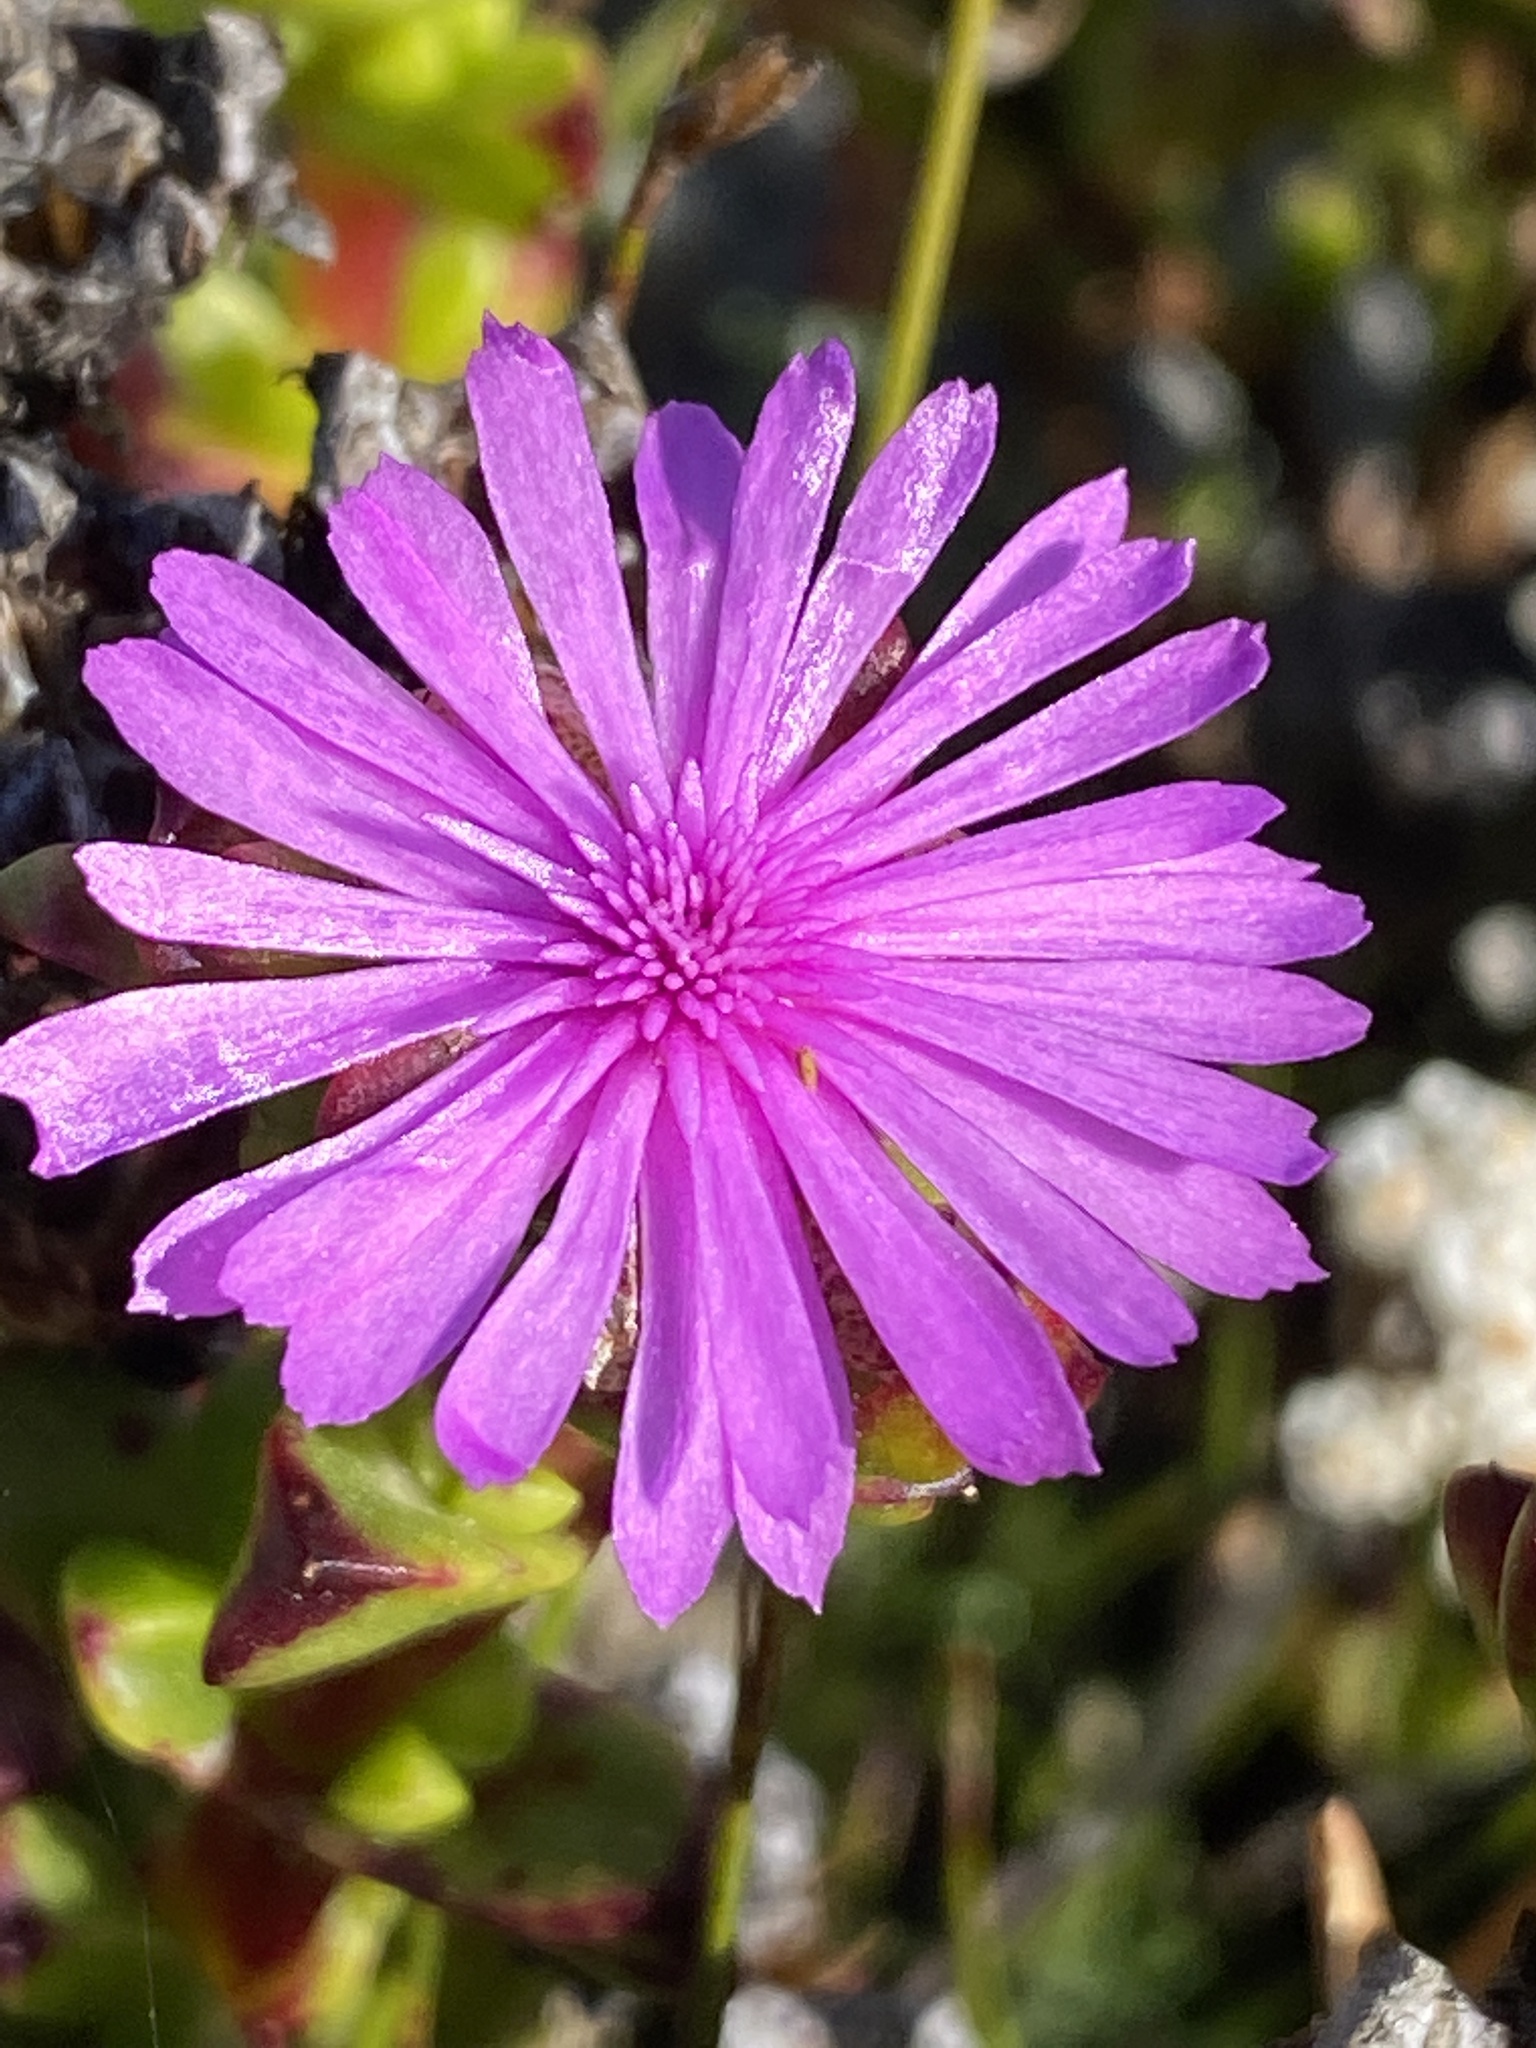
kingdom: Plantae
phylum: Tracheophyta
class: Magnoliopsida
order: Caryophyllales
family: Aizoaceae
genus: Erepsia
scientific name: Erepsia inclaudens
